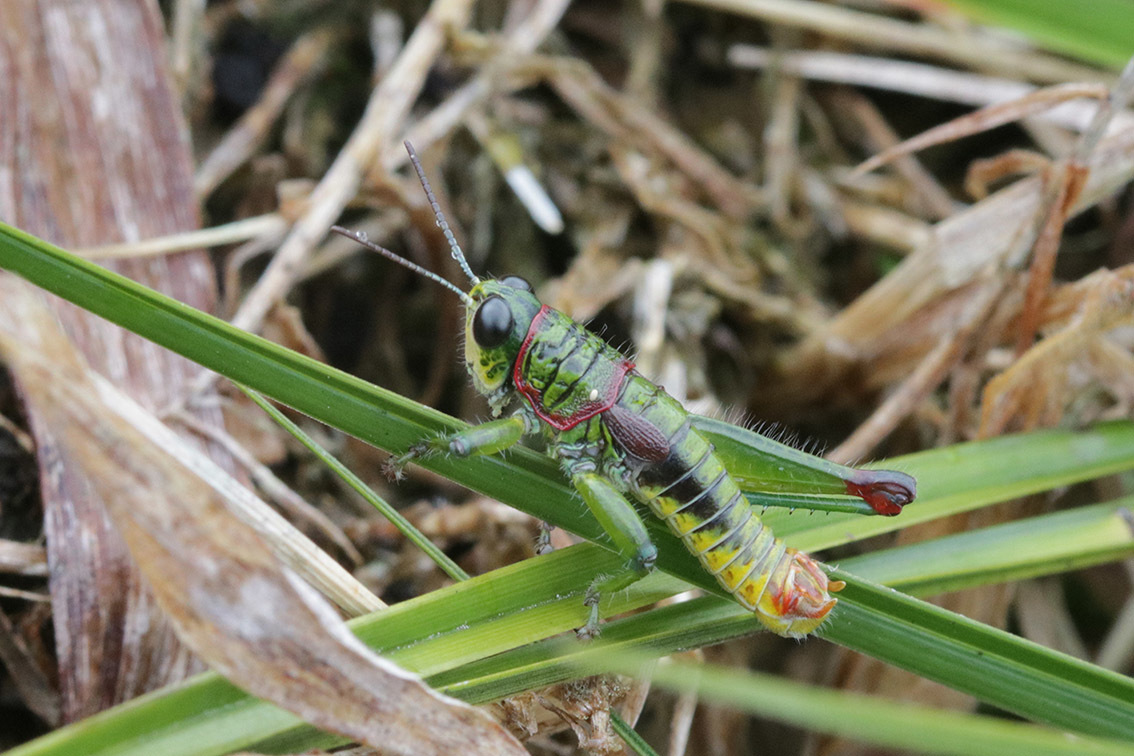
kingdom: Animalia
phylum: Arthropoda
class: Insecta
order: Orthoptera
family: Acrididae
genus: Jivarus
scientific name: Jivarus ronderosi
